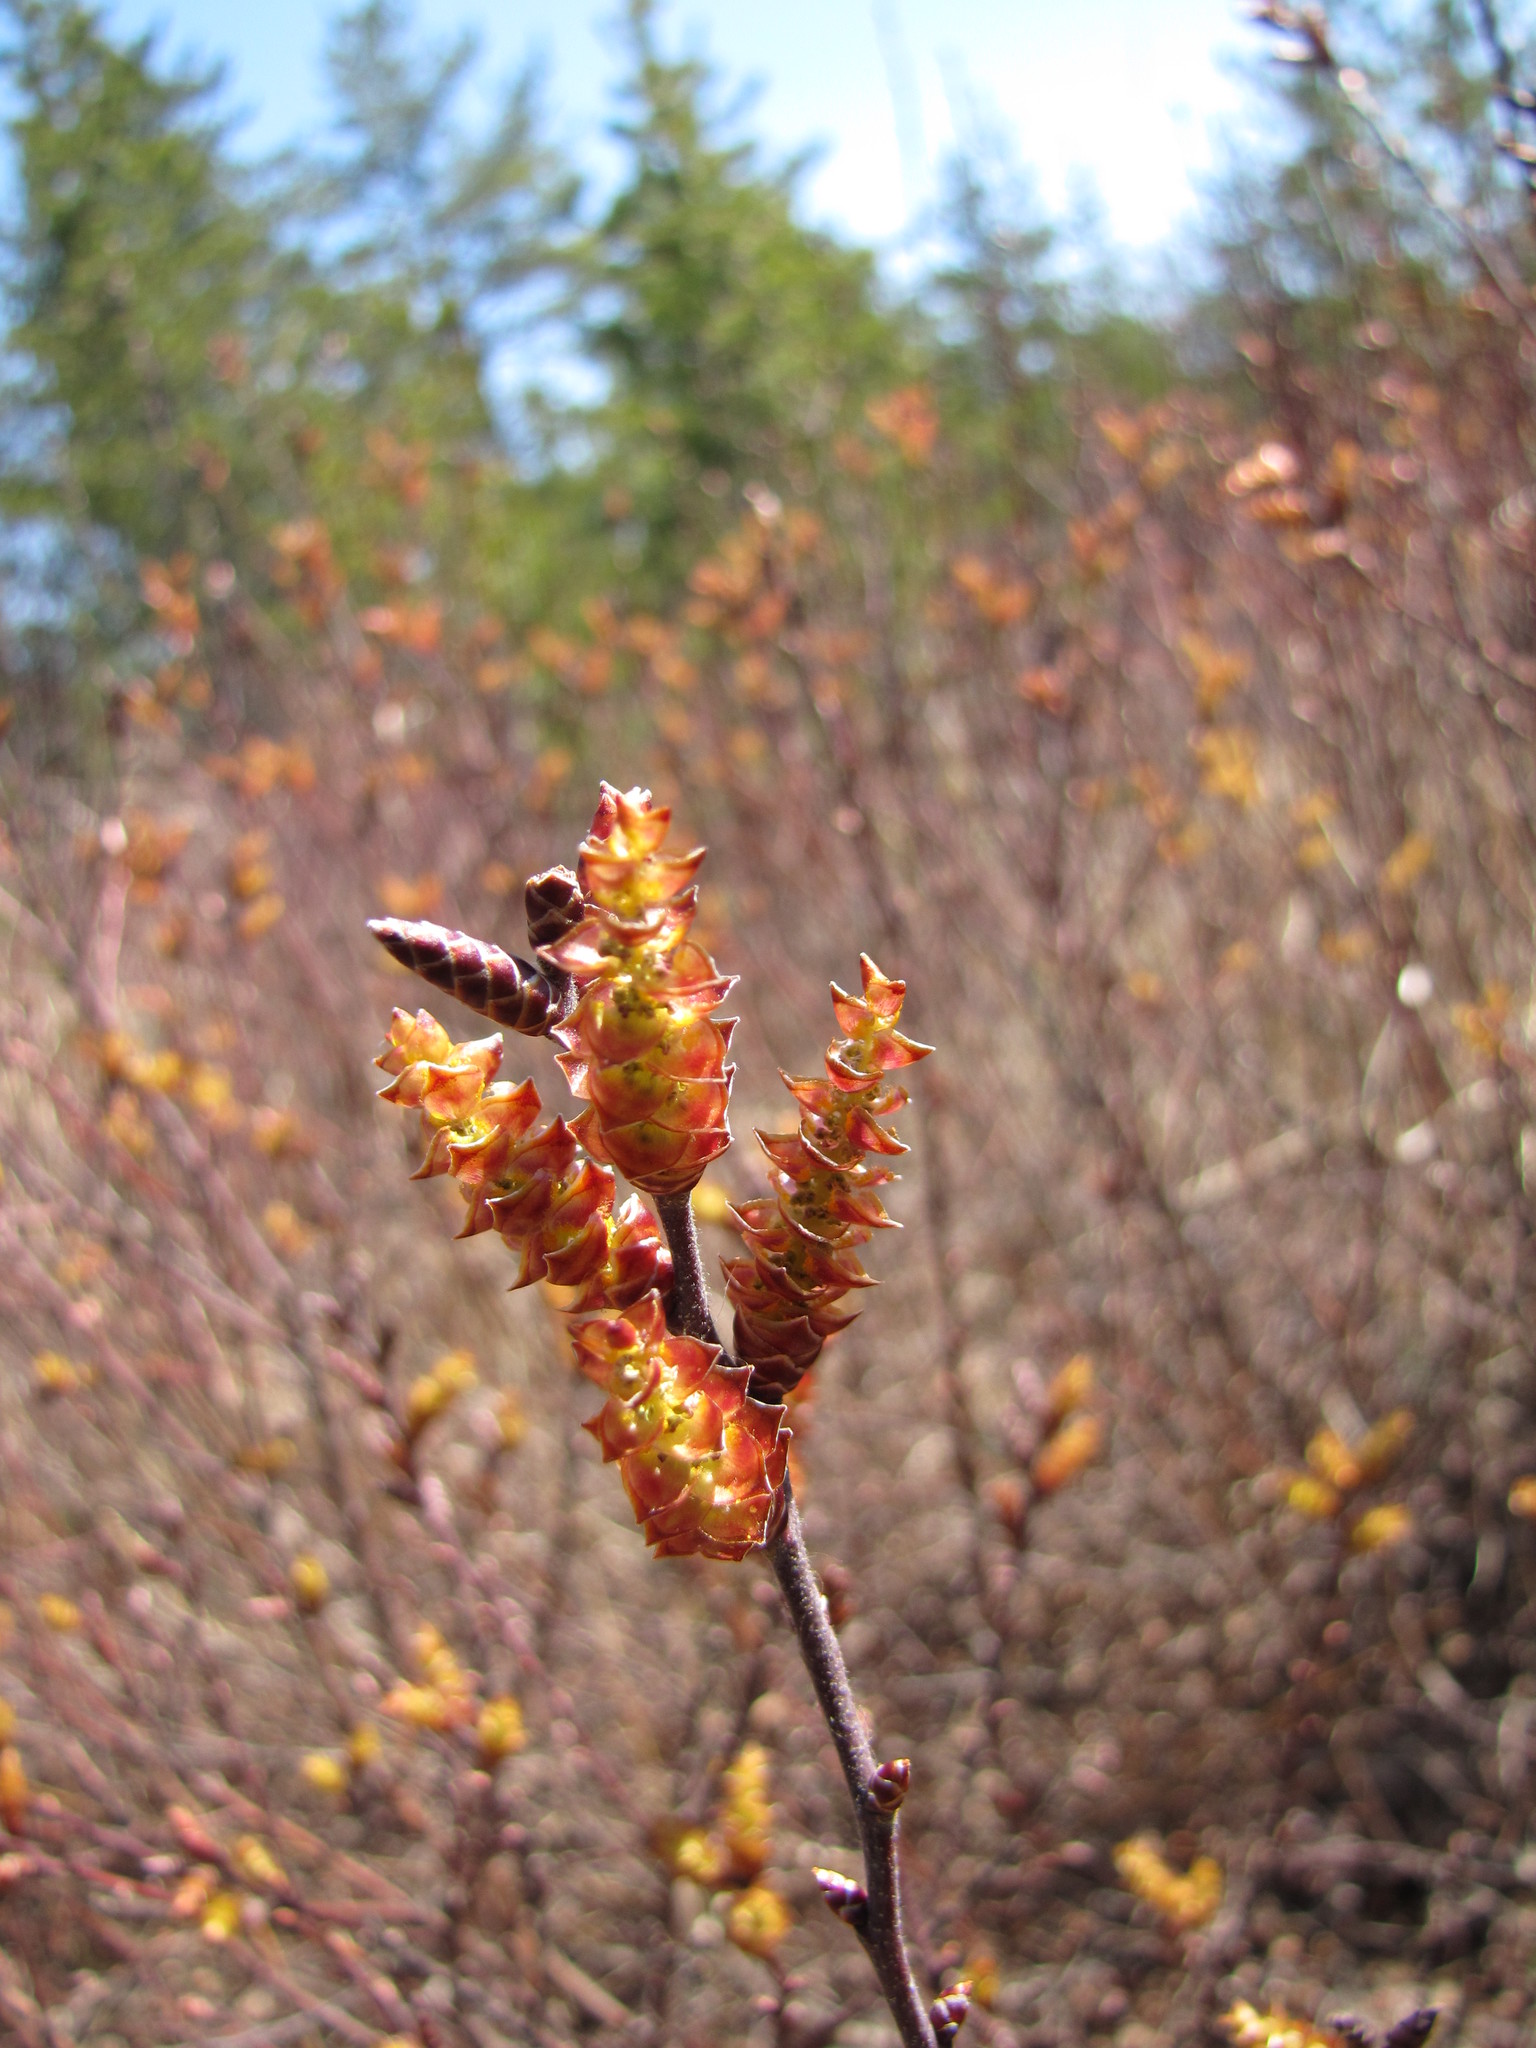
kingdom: Plantae
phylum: Tracheophyta
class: Magnoliopsida
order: Fagales
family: Myricaceae
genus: Myrica
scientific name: Myrica gale
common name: Sweet gale
